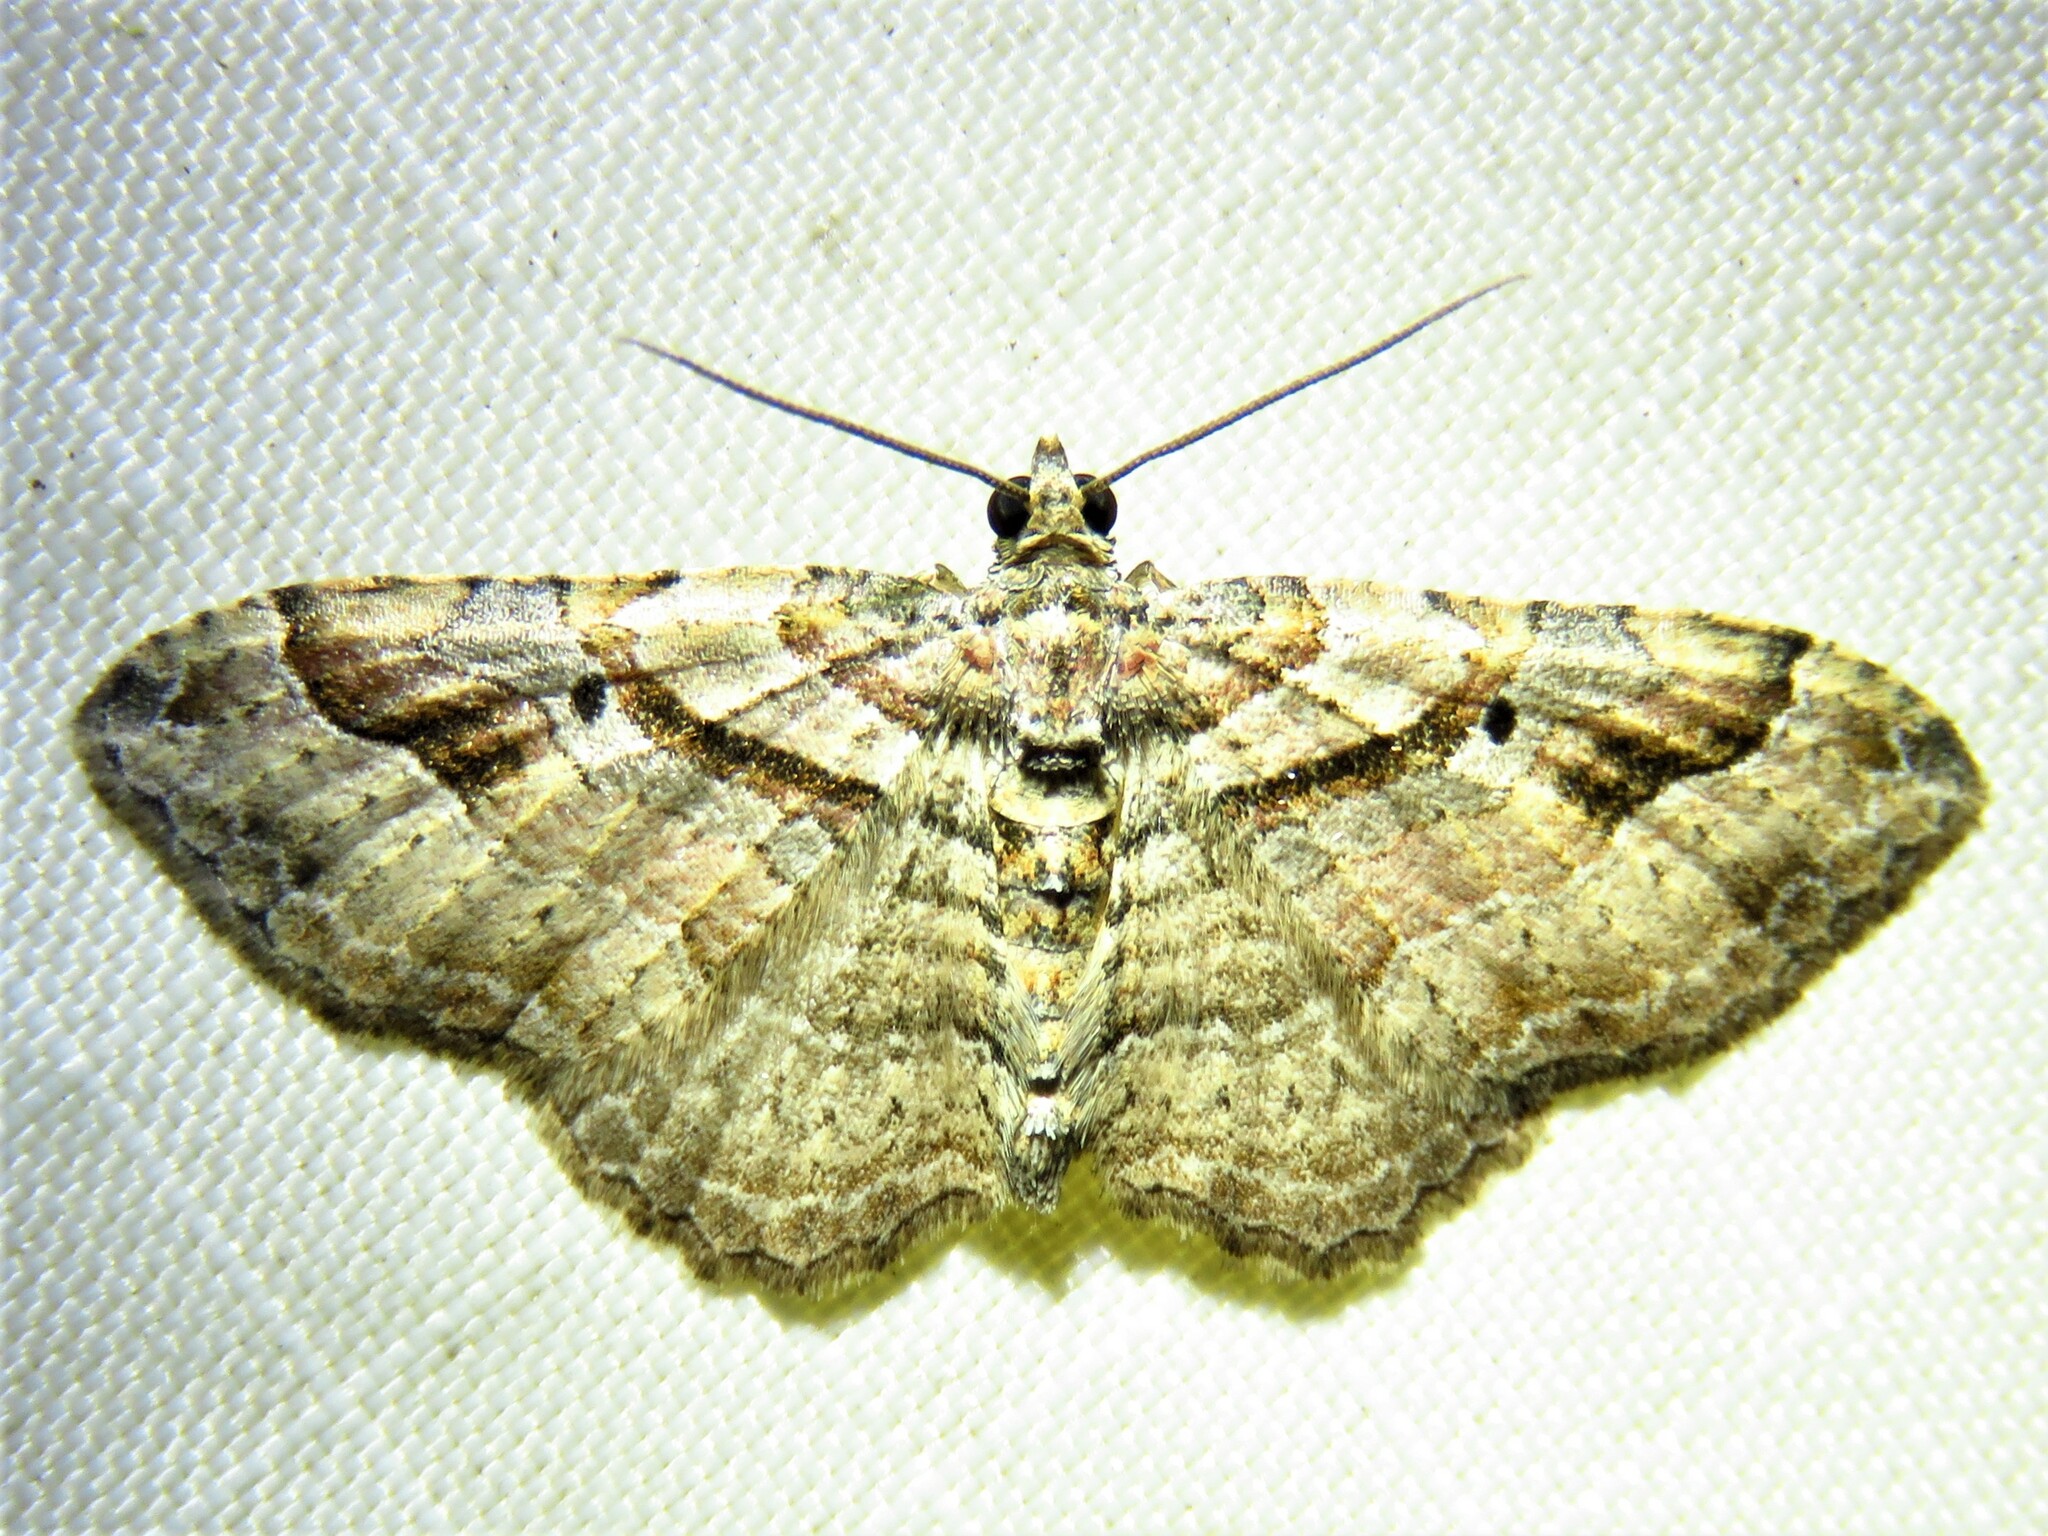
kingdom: Animalia
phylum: Arthropoda
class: Insecta
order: Lepidoptera
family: Geometridae
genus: Costaconvexa
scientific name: Costaconvexa centrostrigaria
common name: Bent-line carpet
